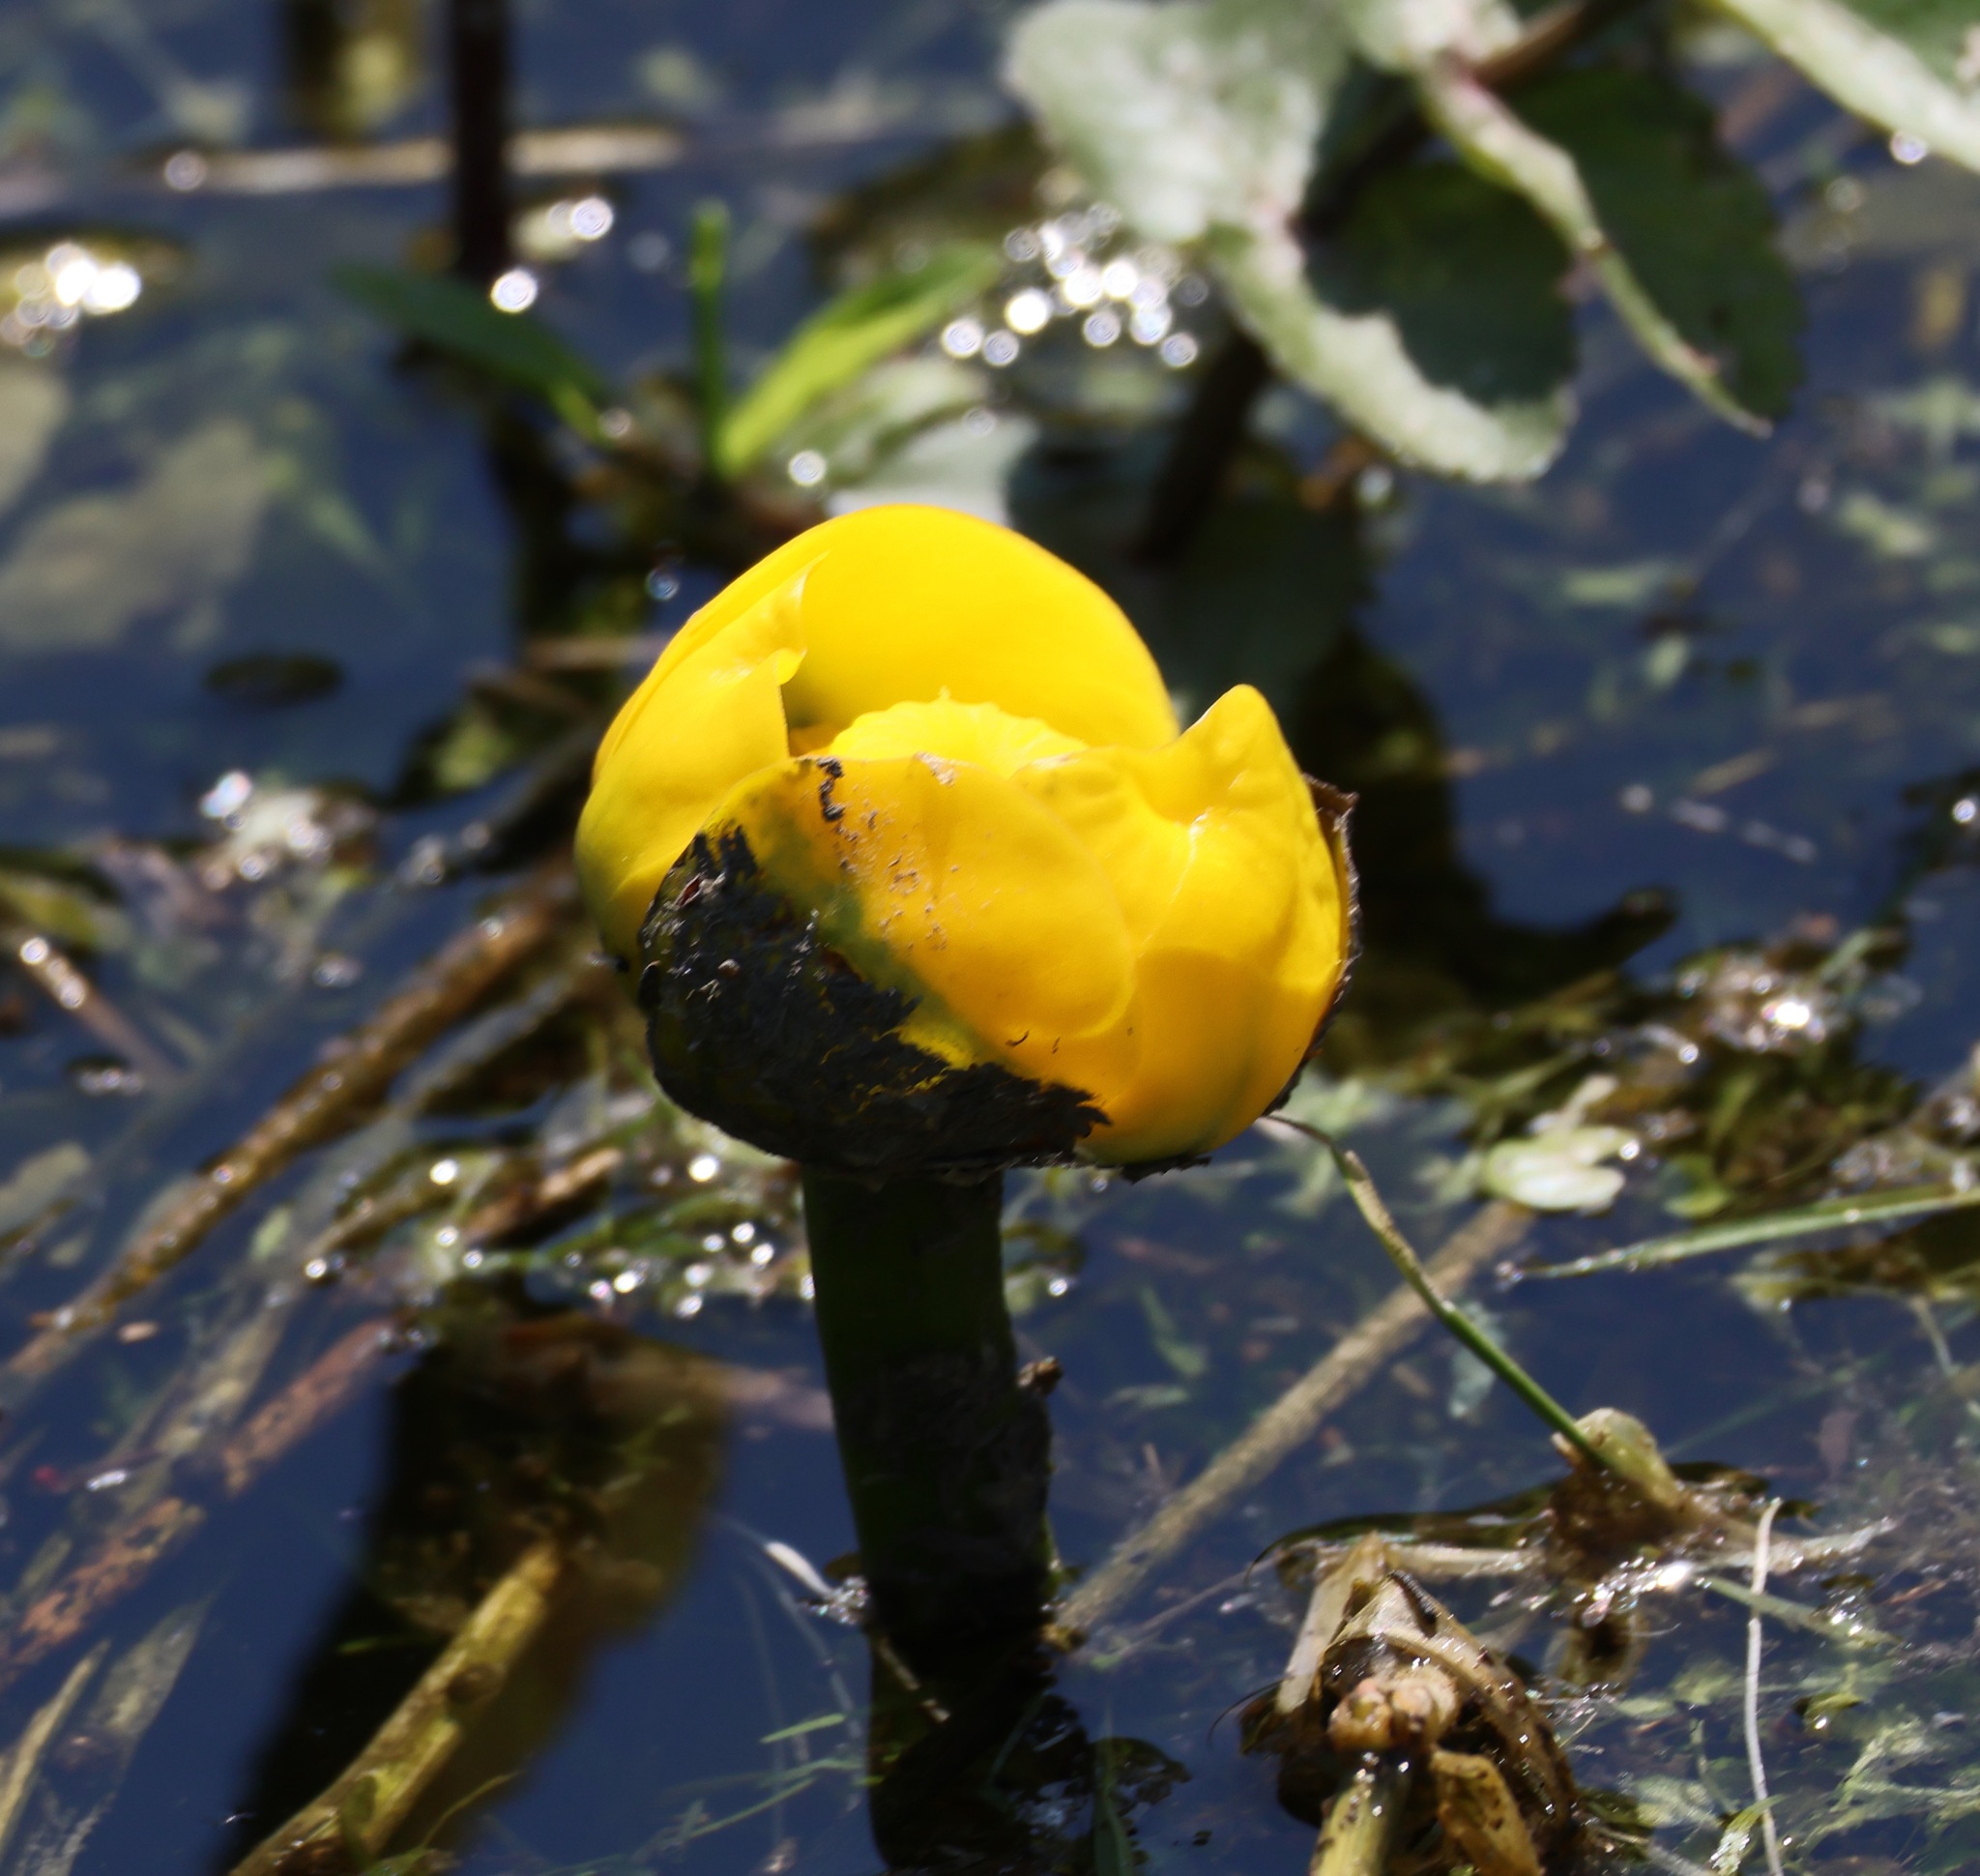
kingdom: Plantae
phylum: Tracheophyta
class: Magnoliopsida
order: Nymphaeales
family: Nymphaeaceae
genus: Nuphar
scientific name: Nuphar lutea
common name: Yellow water-lily
